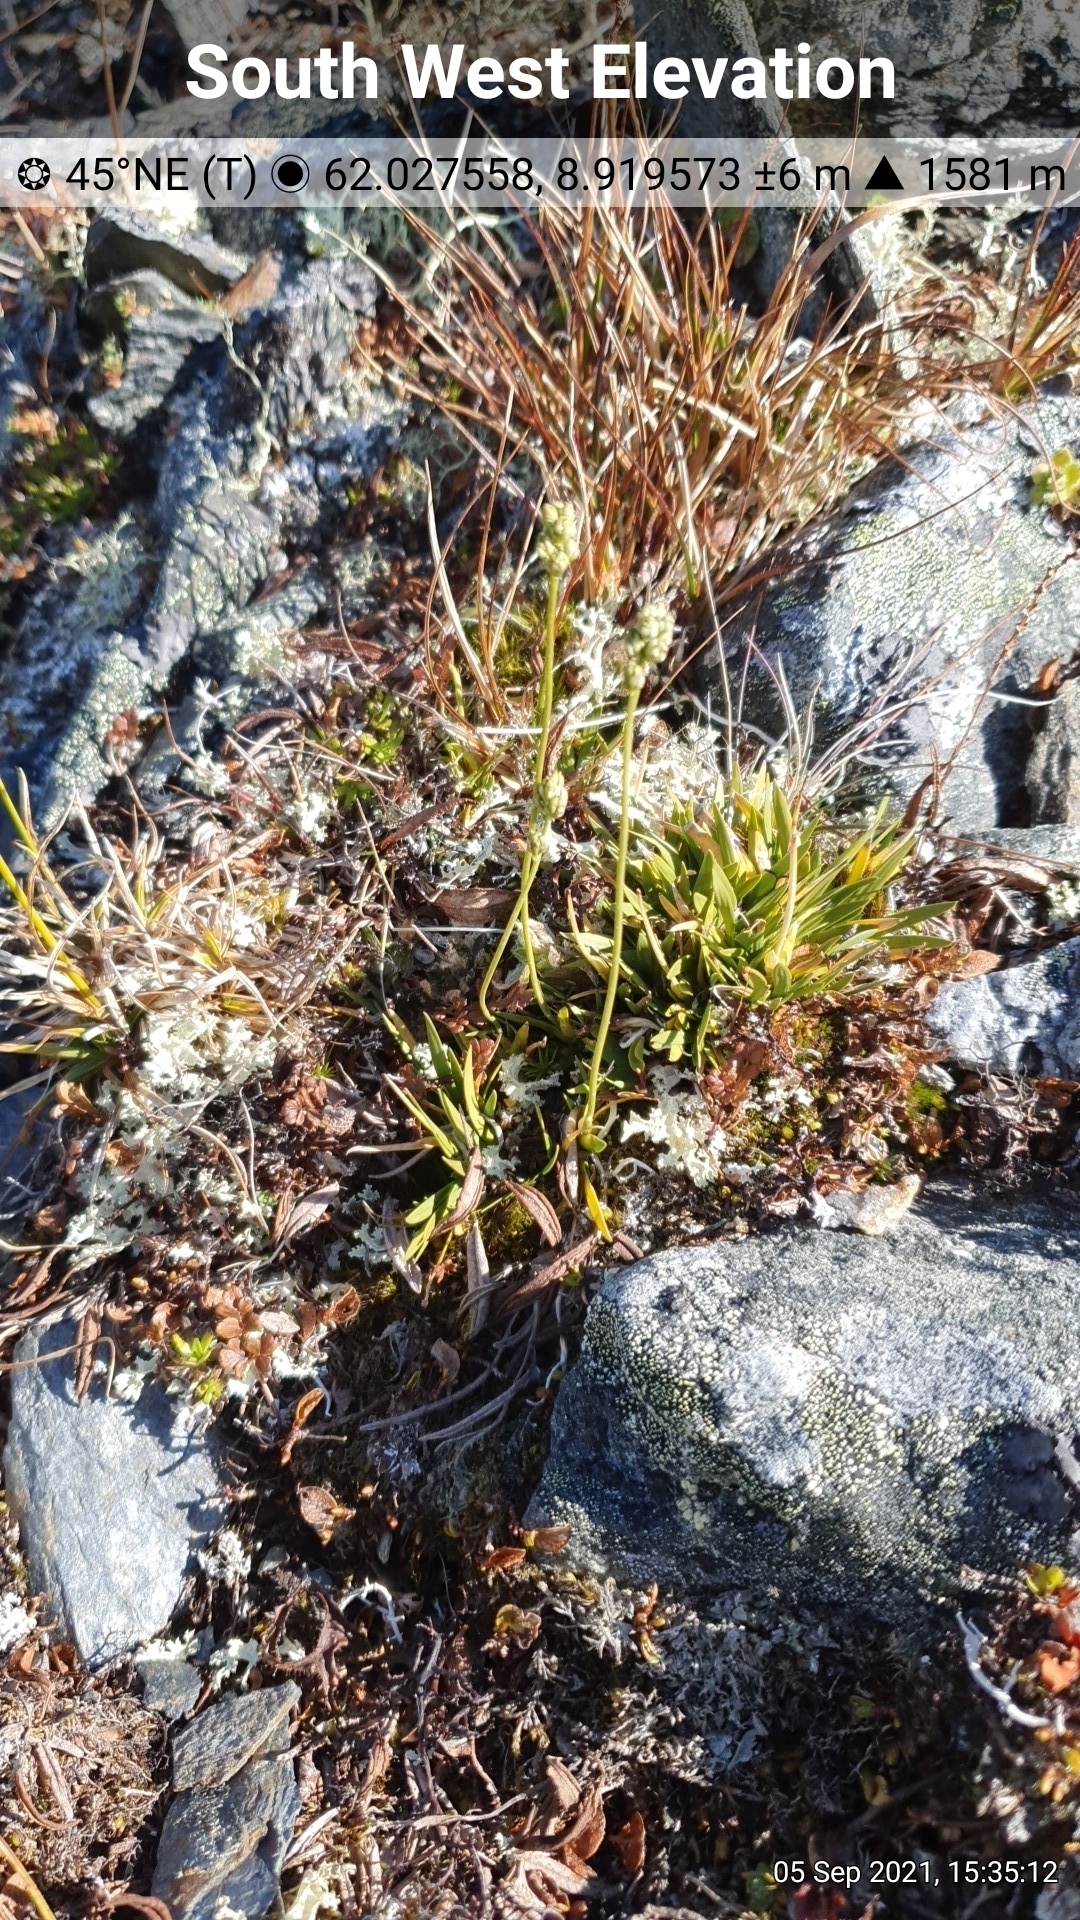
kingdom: Plantae
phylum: Tracheophyta
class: Liliopsida
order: Alismatales
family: Tofieldiaceae
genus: Tofieldia
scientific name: Tofieldia pusilla
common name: Scottish false asphodel
